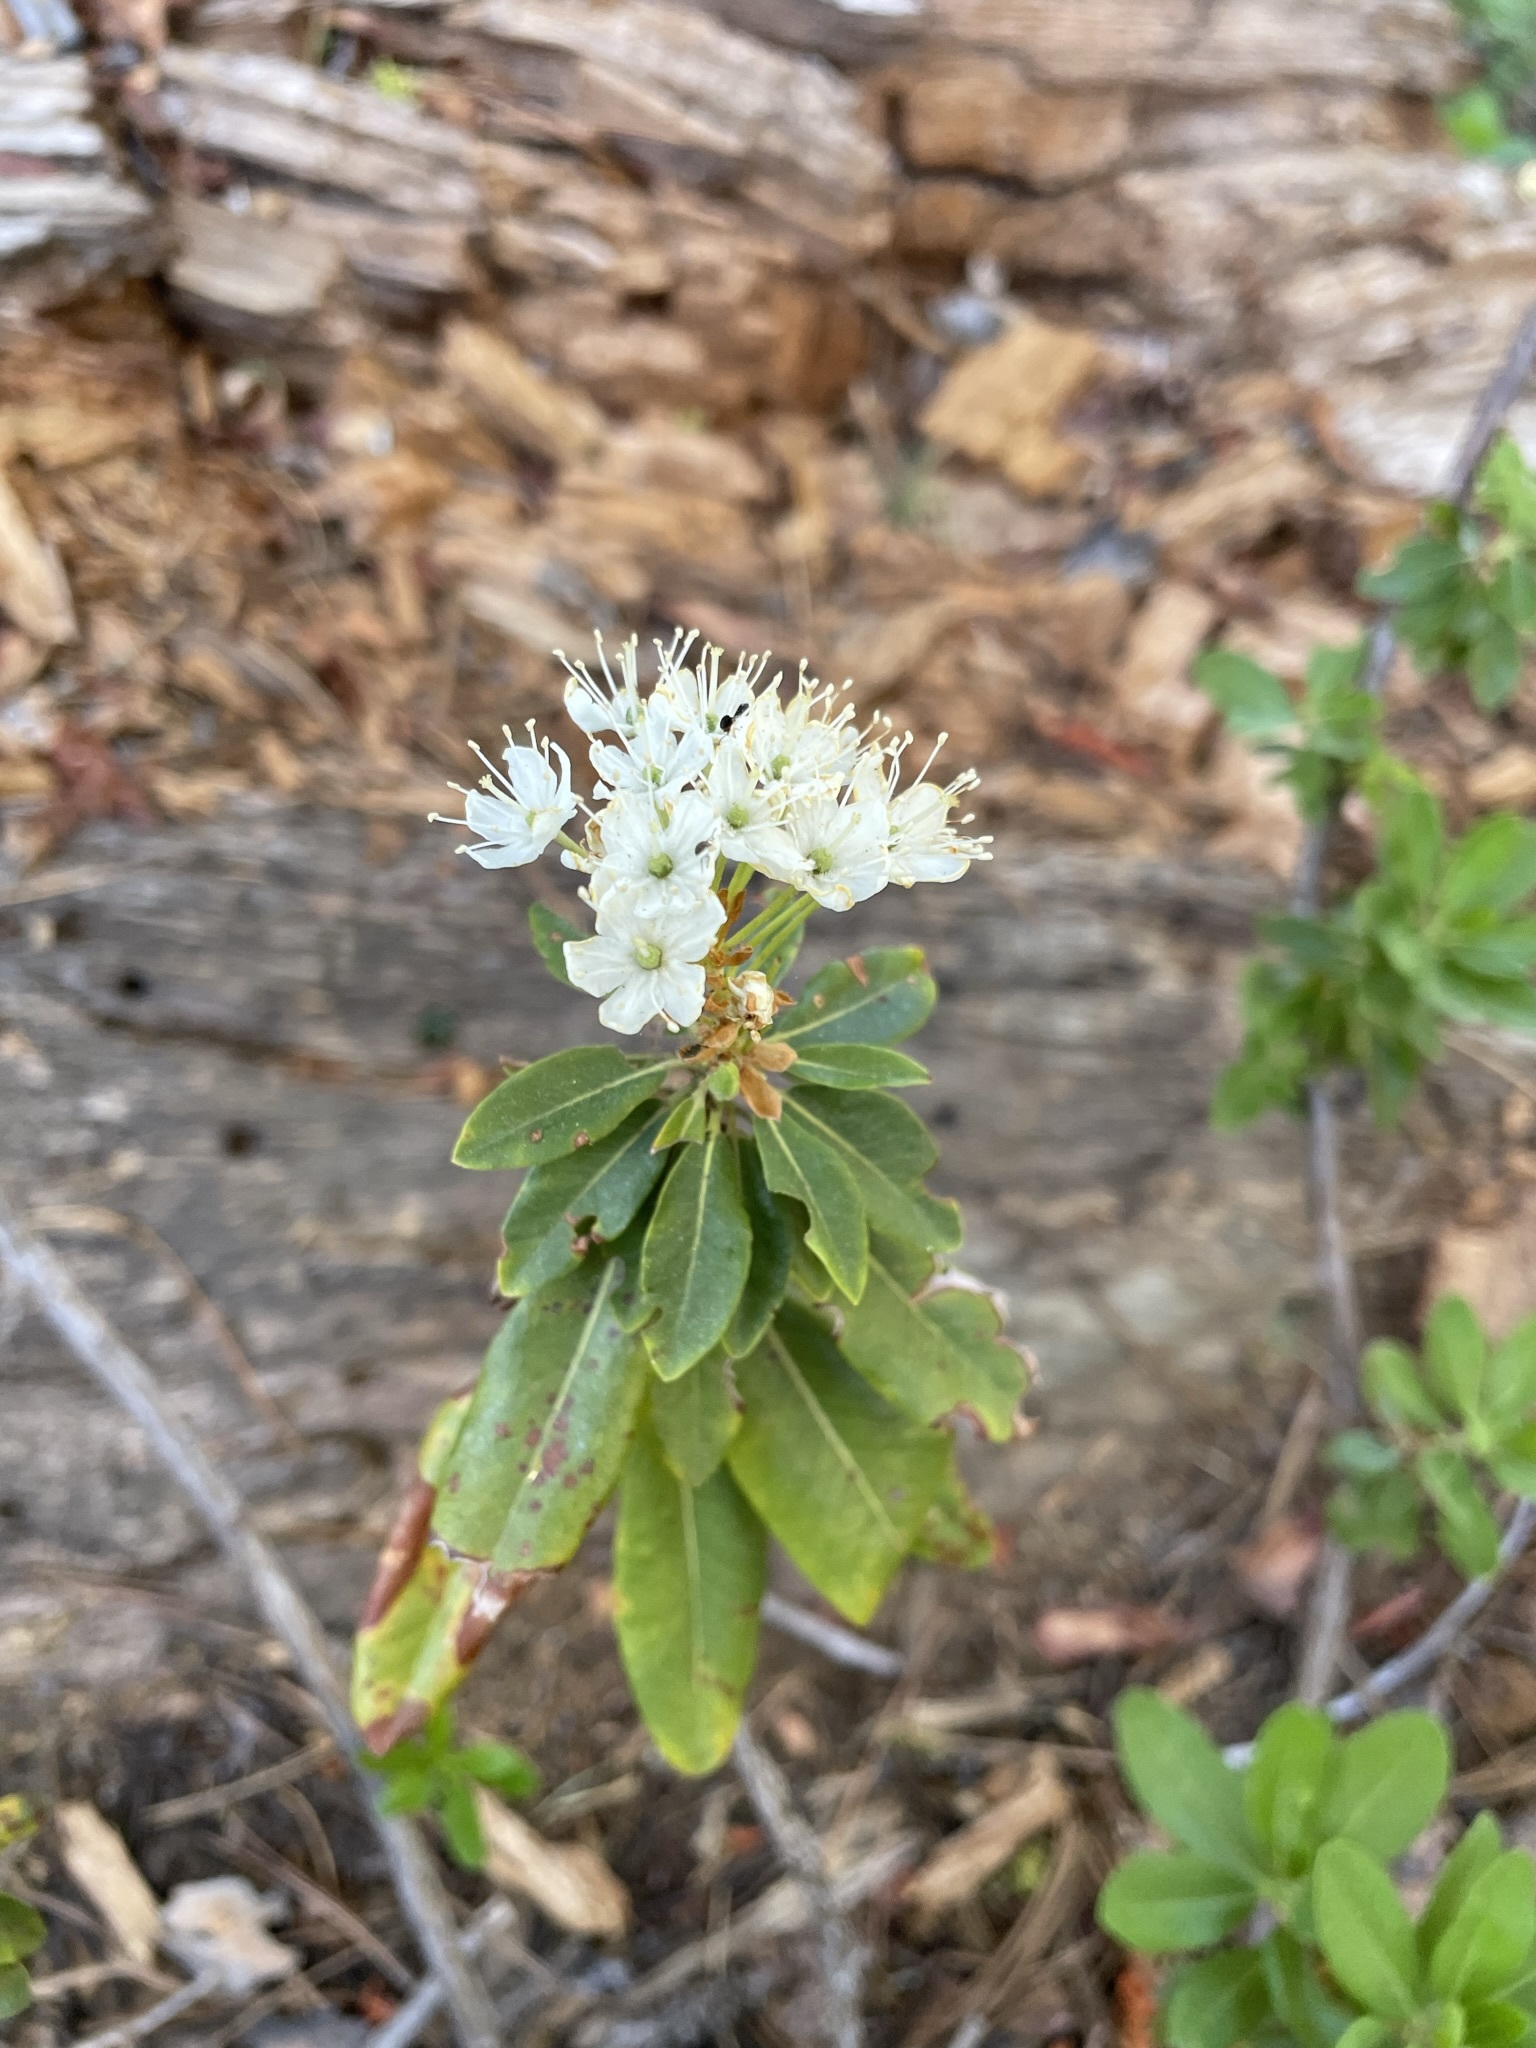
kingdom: Plantae
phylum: Tracheophyta
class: Magnoliopsida
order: Ericales
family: Ericaceae
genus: Rhododendron
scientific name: Rhododendron columbianum
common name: Western labrador tea
